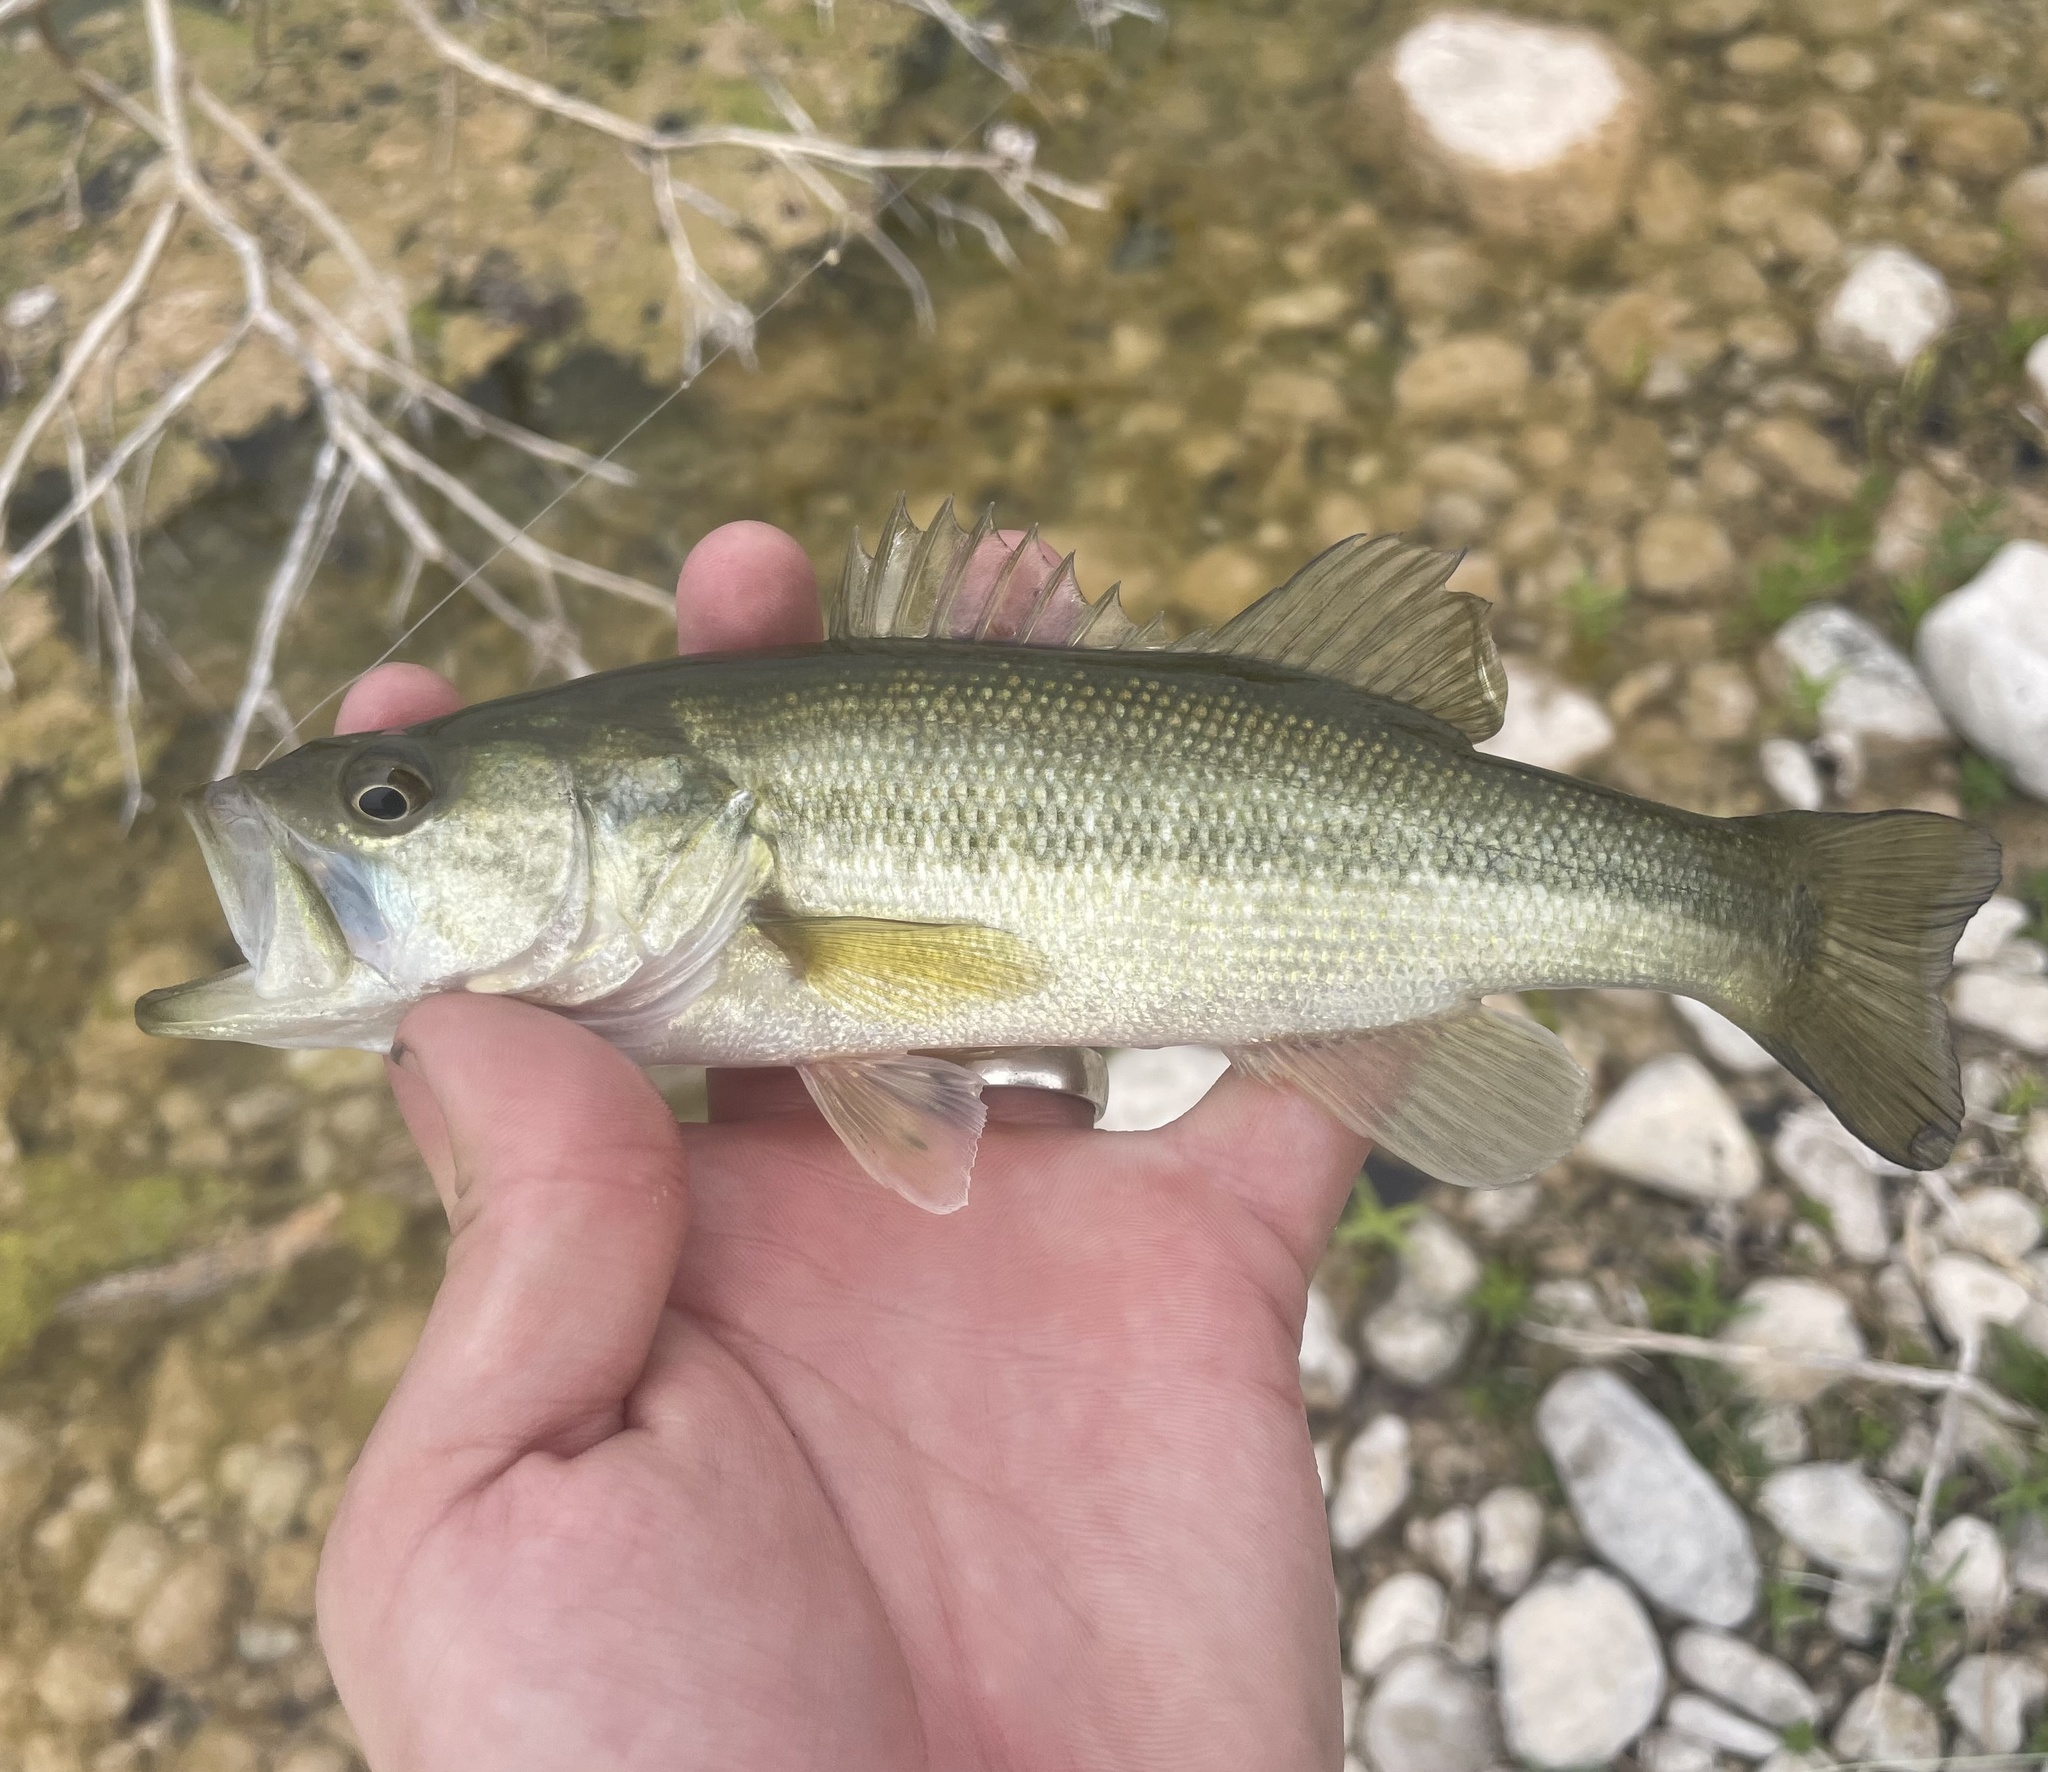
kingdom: Animalia
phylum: Chordata
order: Perciformes
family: Centrarchidae
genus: Micropterus
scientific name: Micropterus
